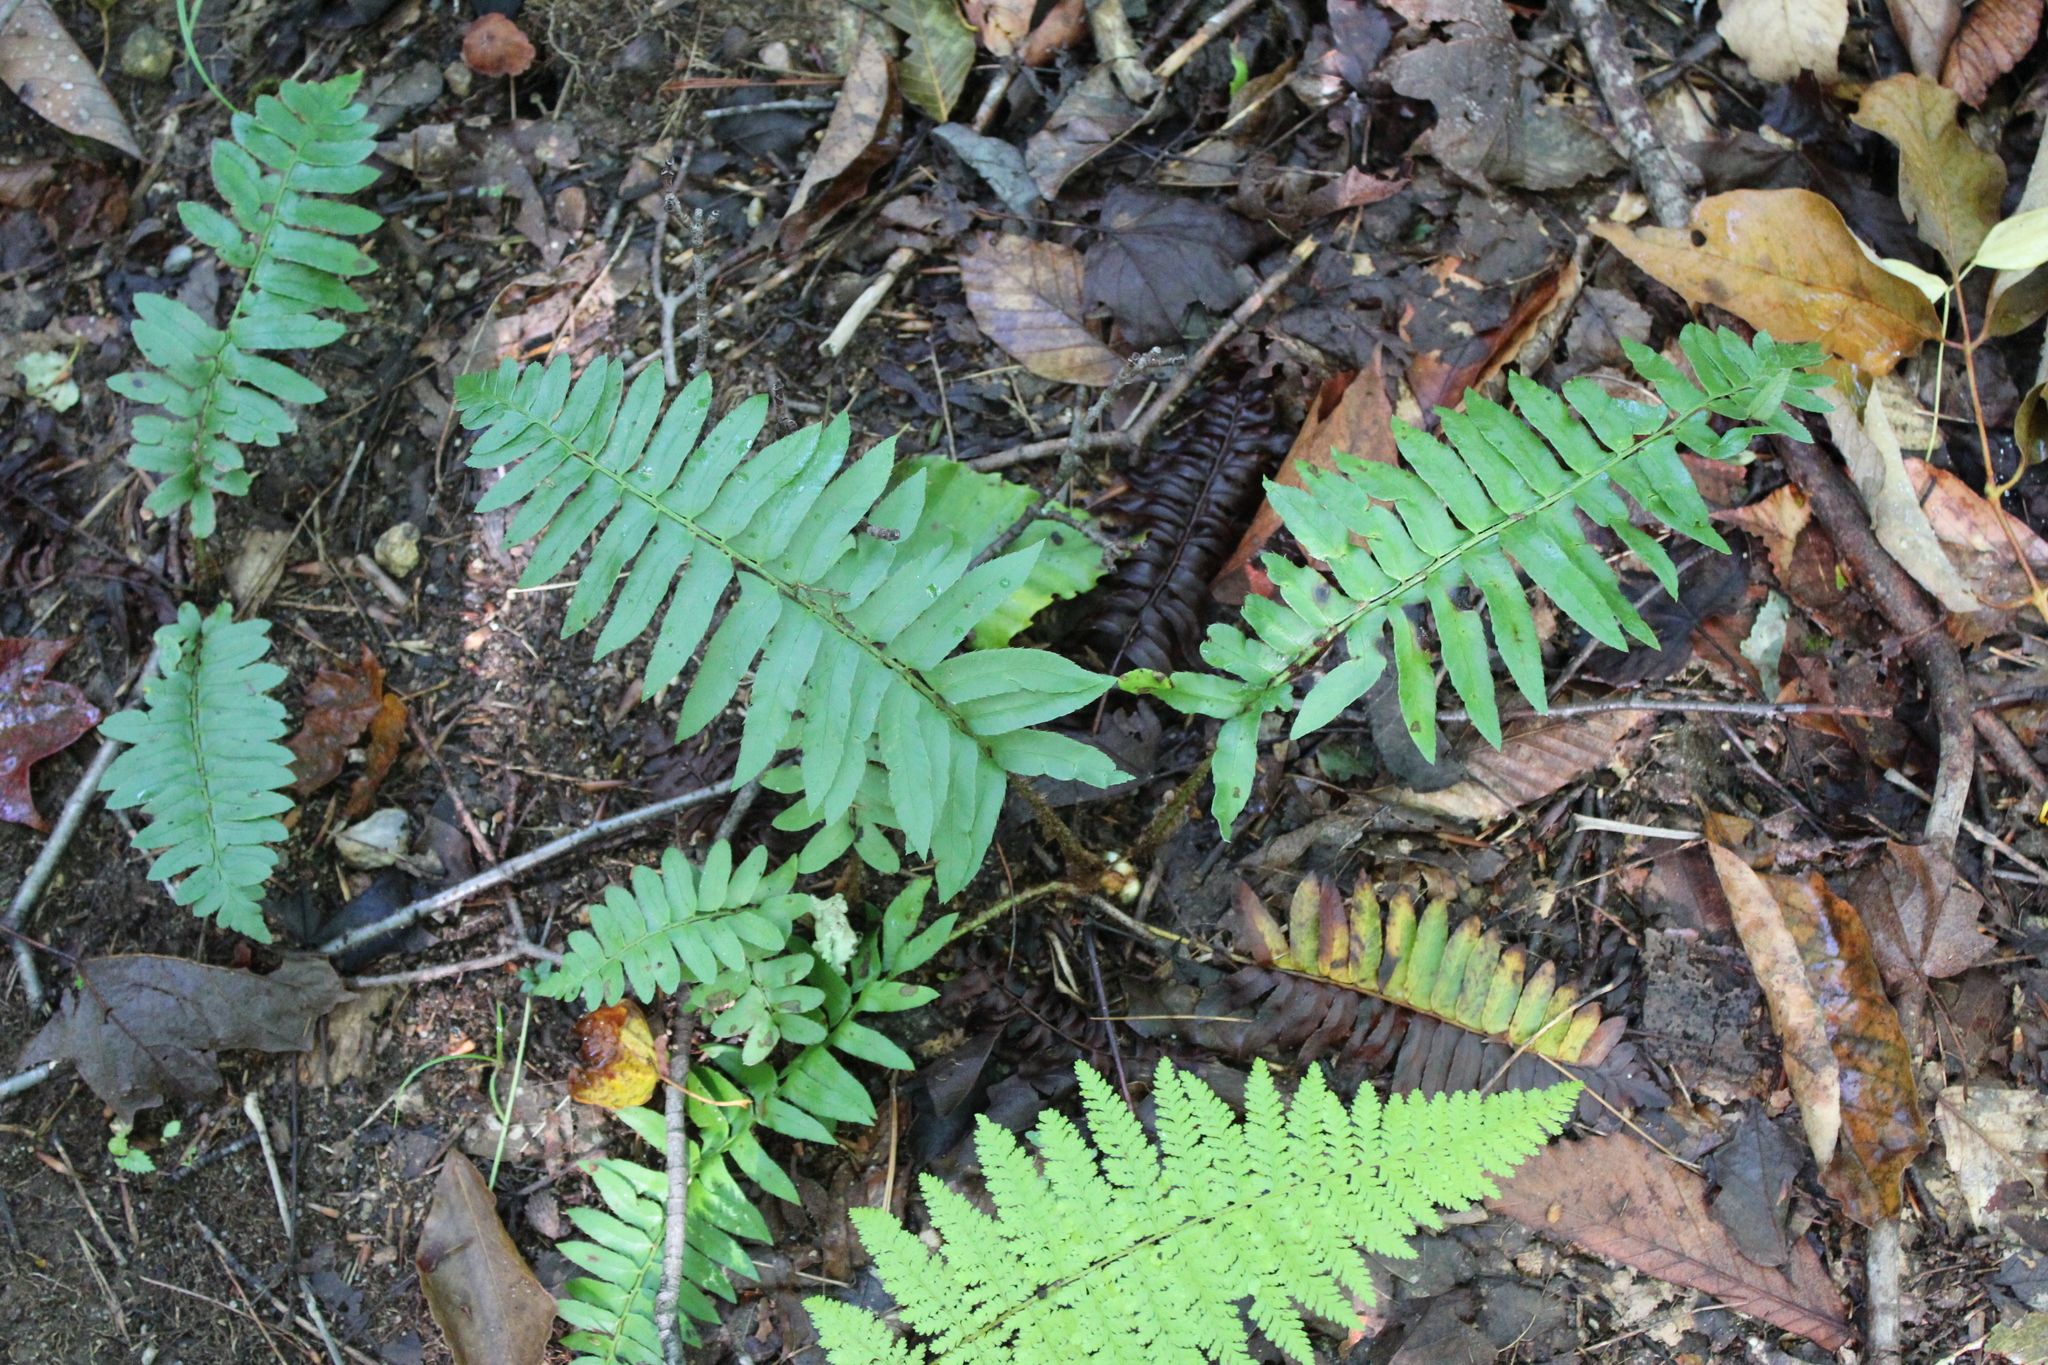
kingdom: Plantae
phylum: Tracheophyta
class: Polypodiopsida
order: Polypodiales
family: Dryopteridaceae
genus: Polystichum
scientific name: Polystichum acrostichoides
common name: Christmas fern
